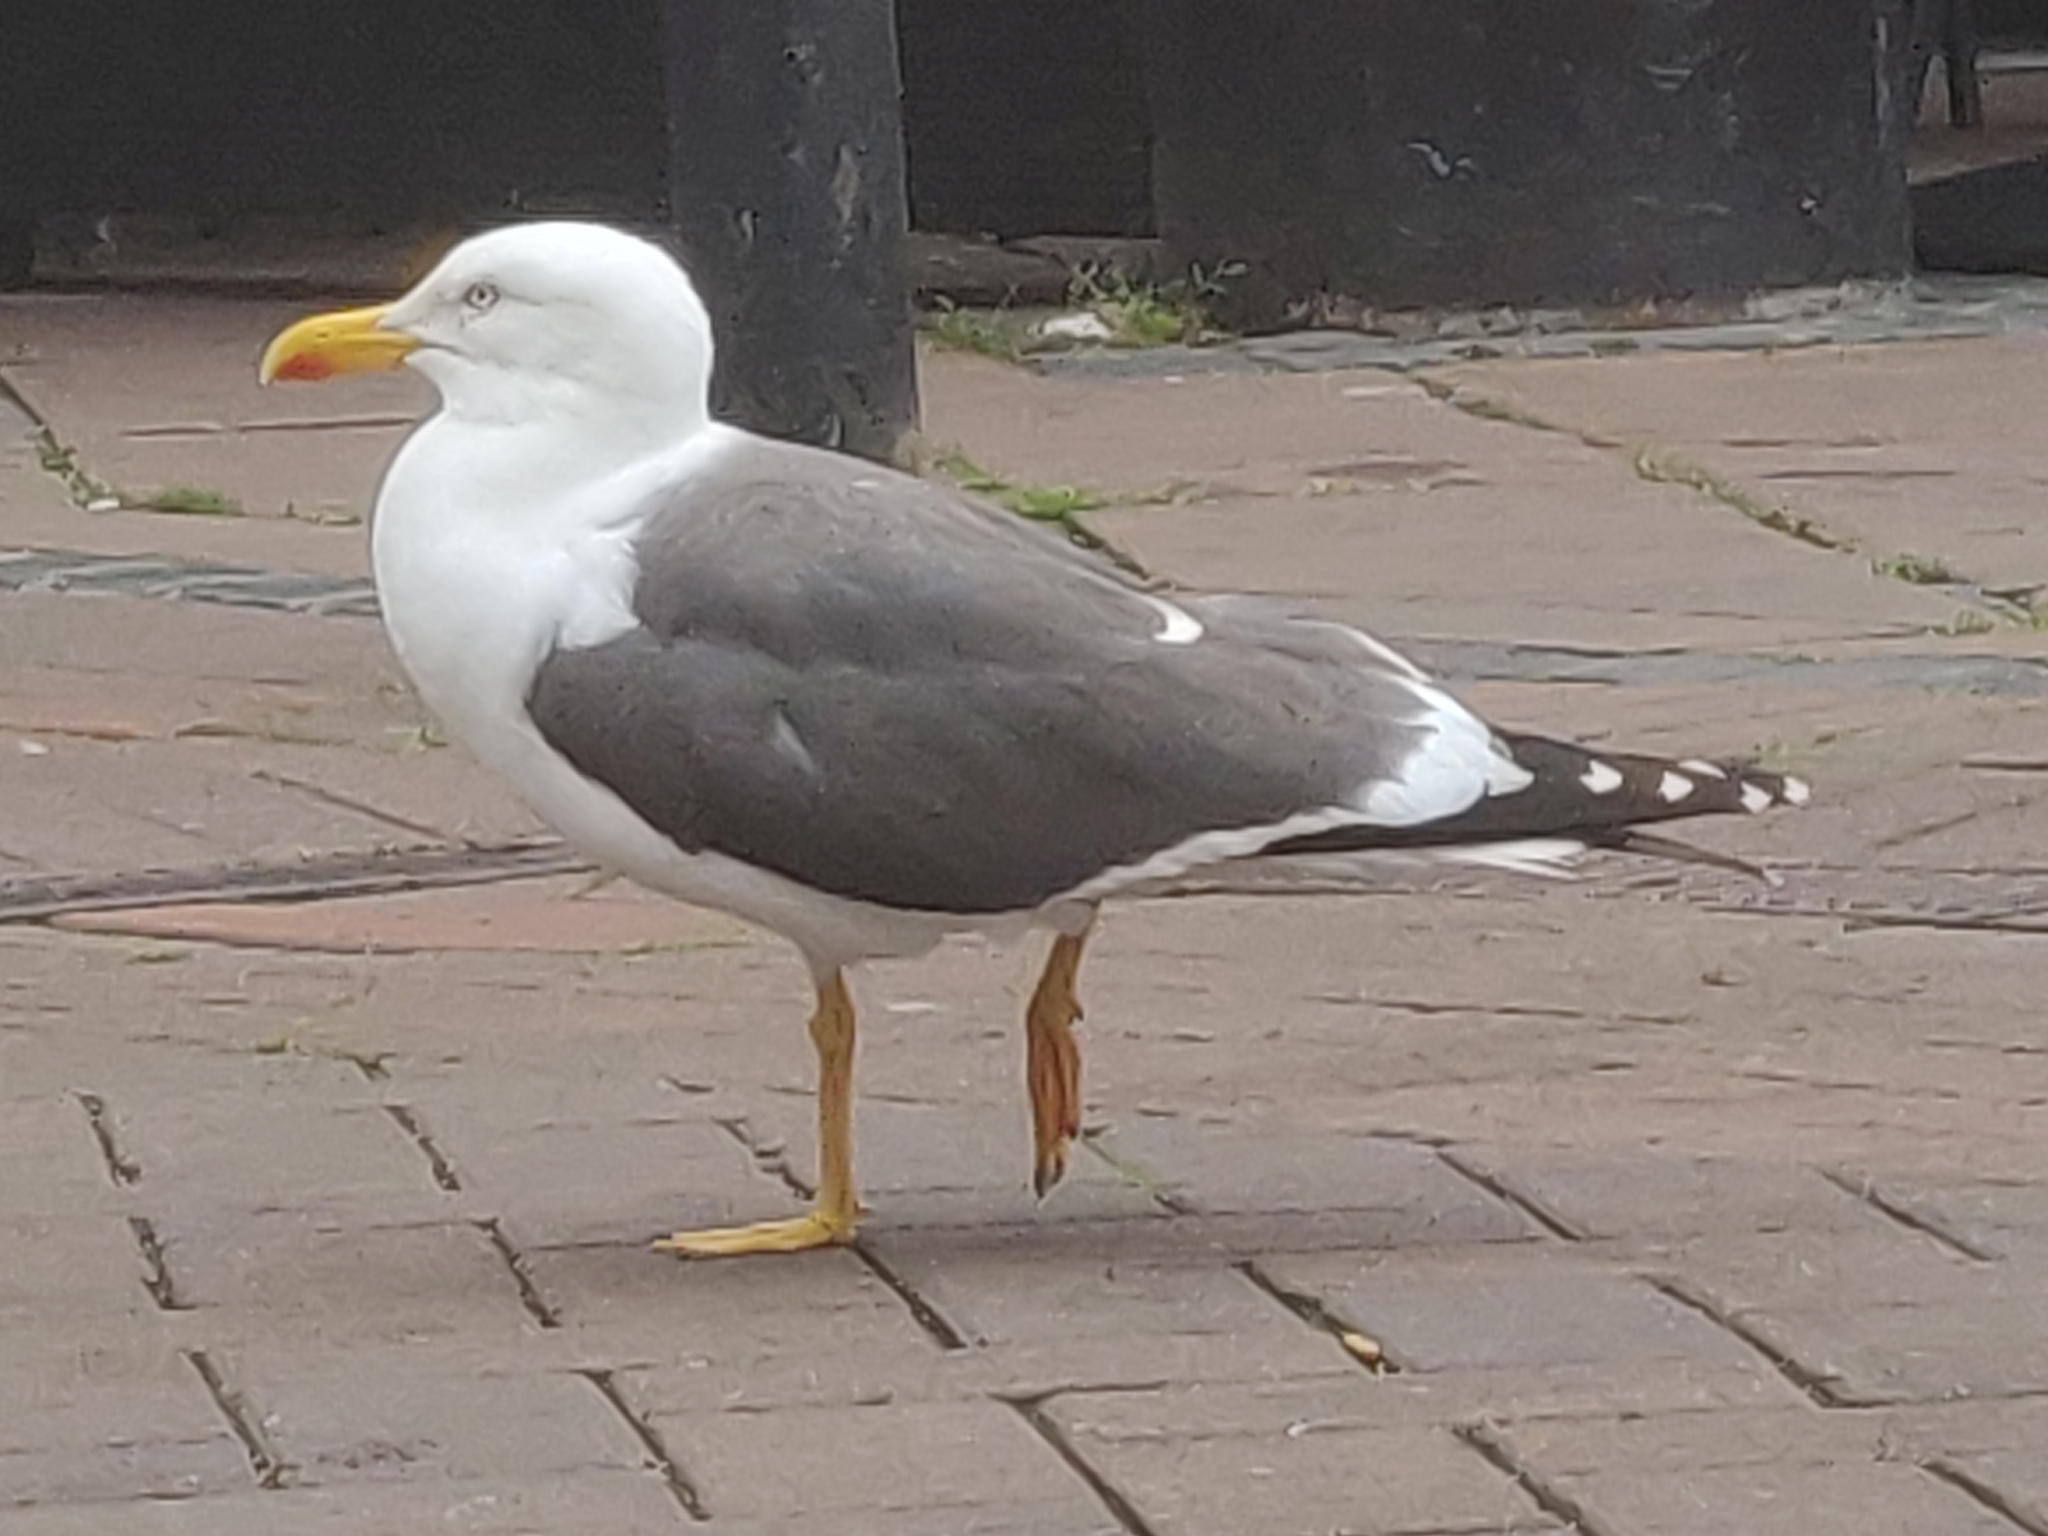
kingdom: Animalia
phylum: Chordata
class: Aves
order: Charadriiformes
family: Laridae
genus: Larus
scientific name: Larus fuscus
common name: Lesser black-backed gull
